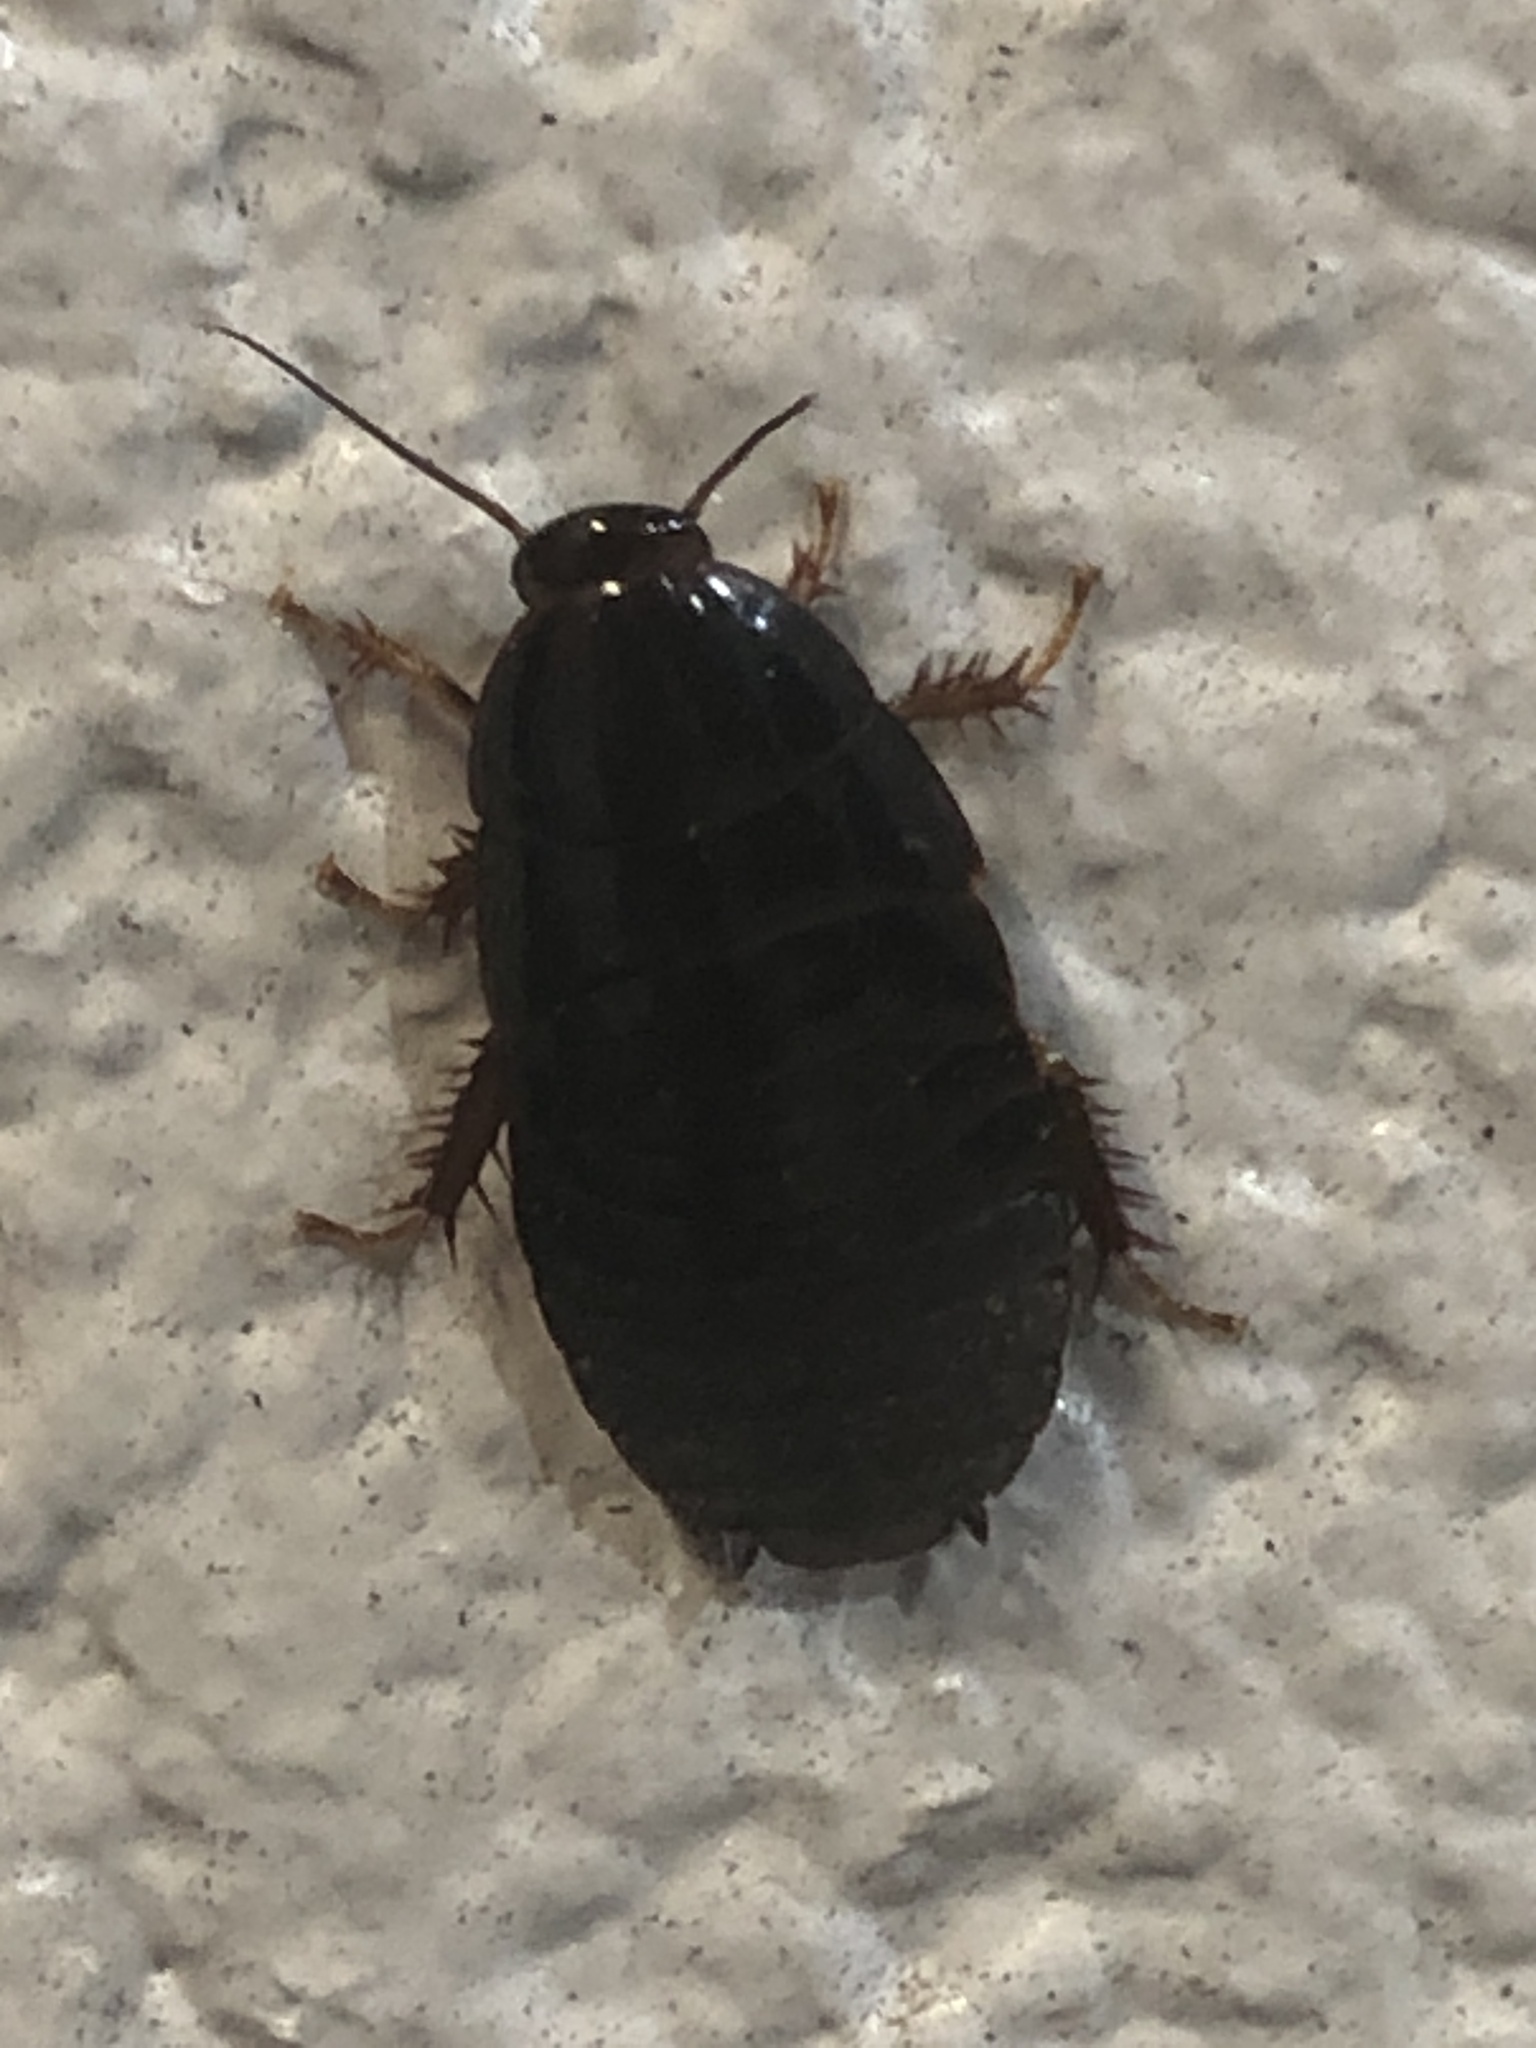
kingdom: Animalia
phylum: Arthropoda
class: Insecta
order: Blattodea
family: Blaberidae
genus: Pycnoscelus
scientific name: Pycnoscelus surinamensis
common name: Surinam cockroach
